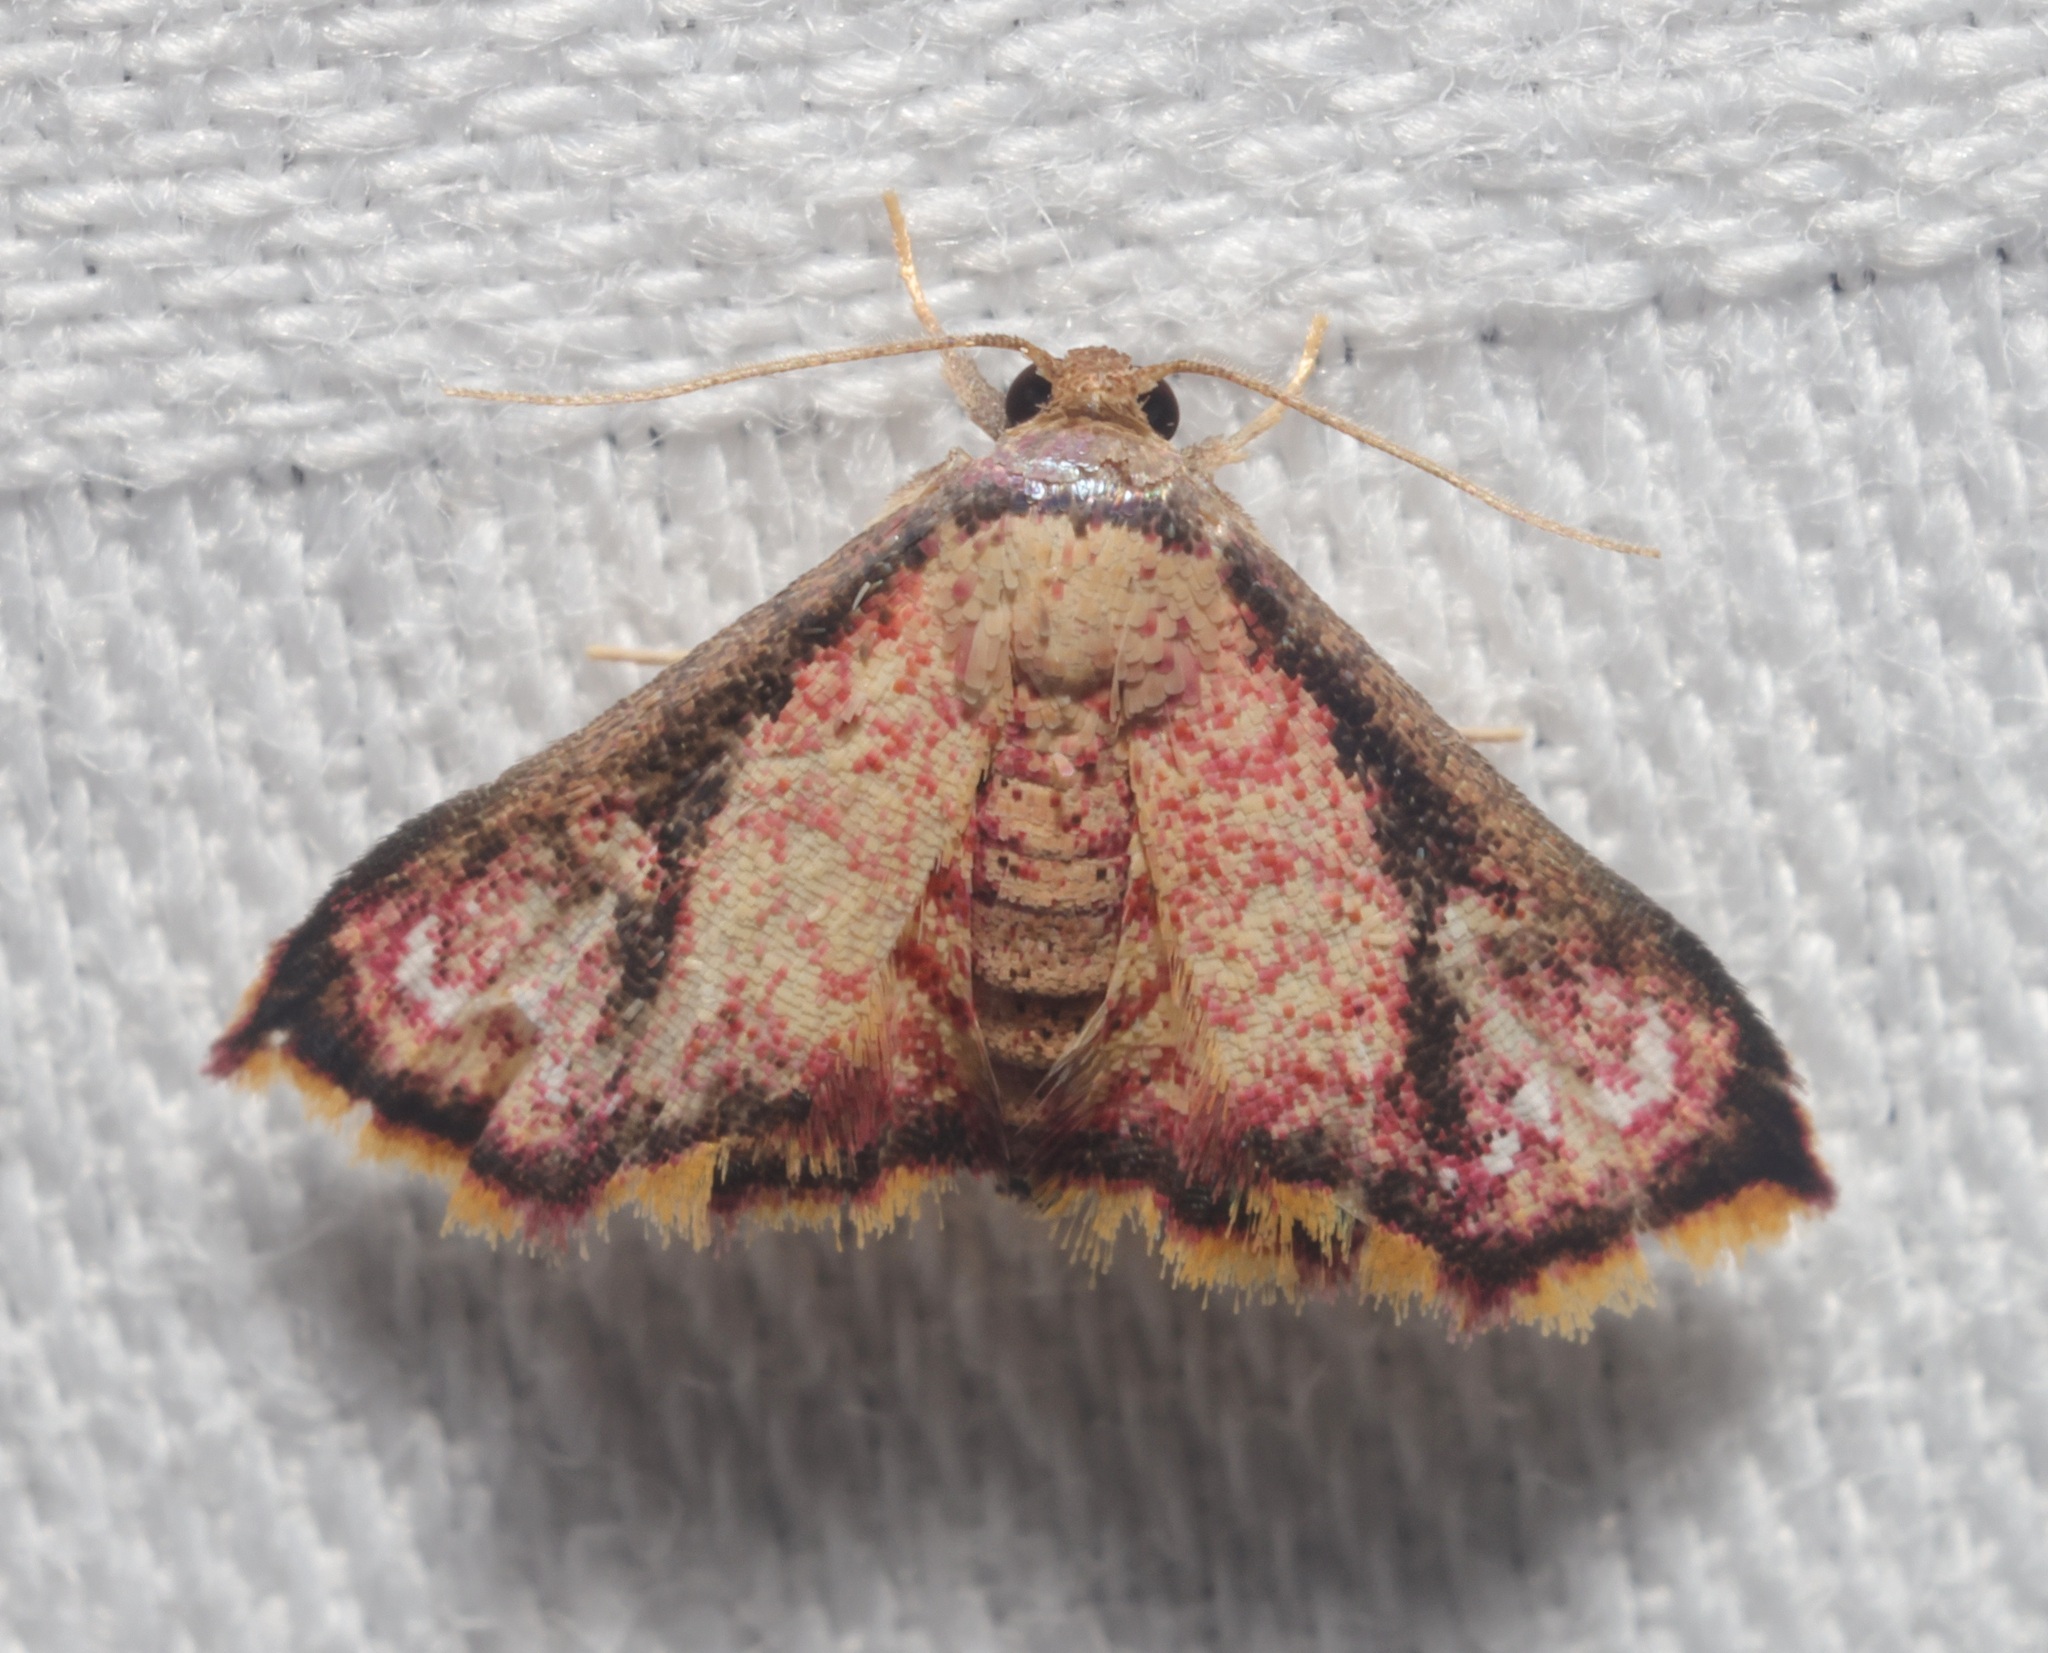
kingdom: Animalia
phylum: Arthropoda
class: Insecta
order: Lepidoptera
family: Noctuidae
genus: Enispa
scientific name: Enispa elataria
